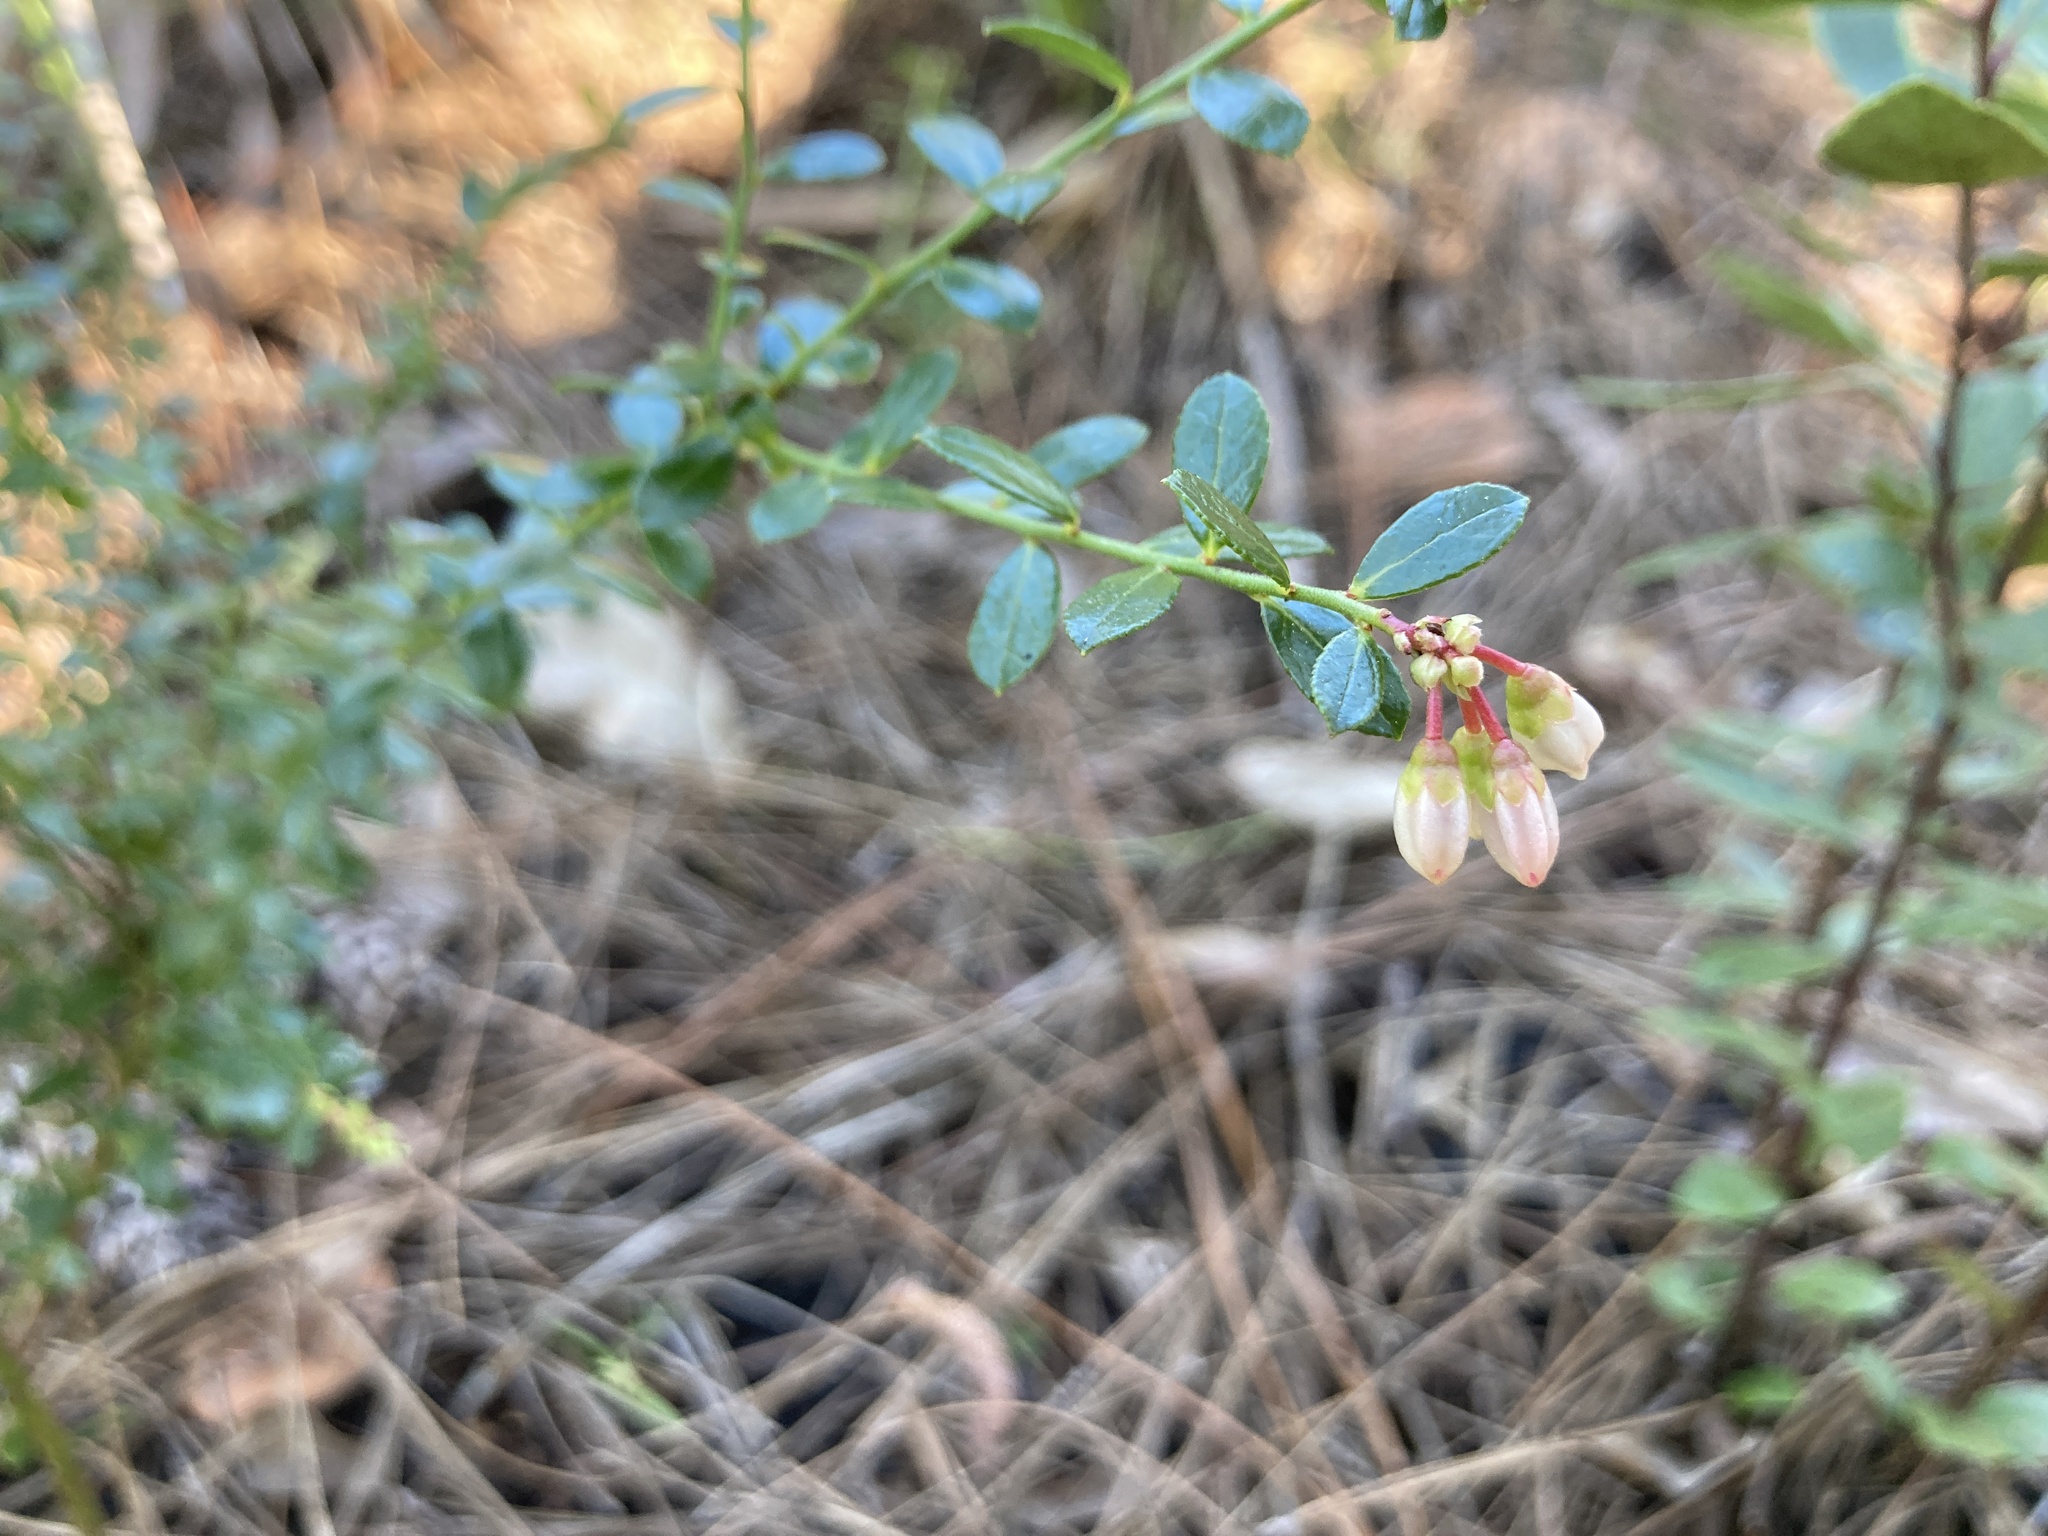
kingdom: Plantae
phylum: Tracheophyta
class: Magnoliopsida
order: Ericales
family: Ericaceae
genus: Vaccinium
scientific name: Vaccinium myrsinites
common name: Evergreen blueberry
